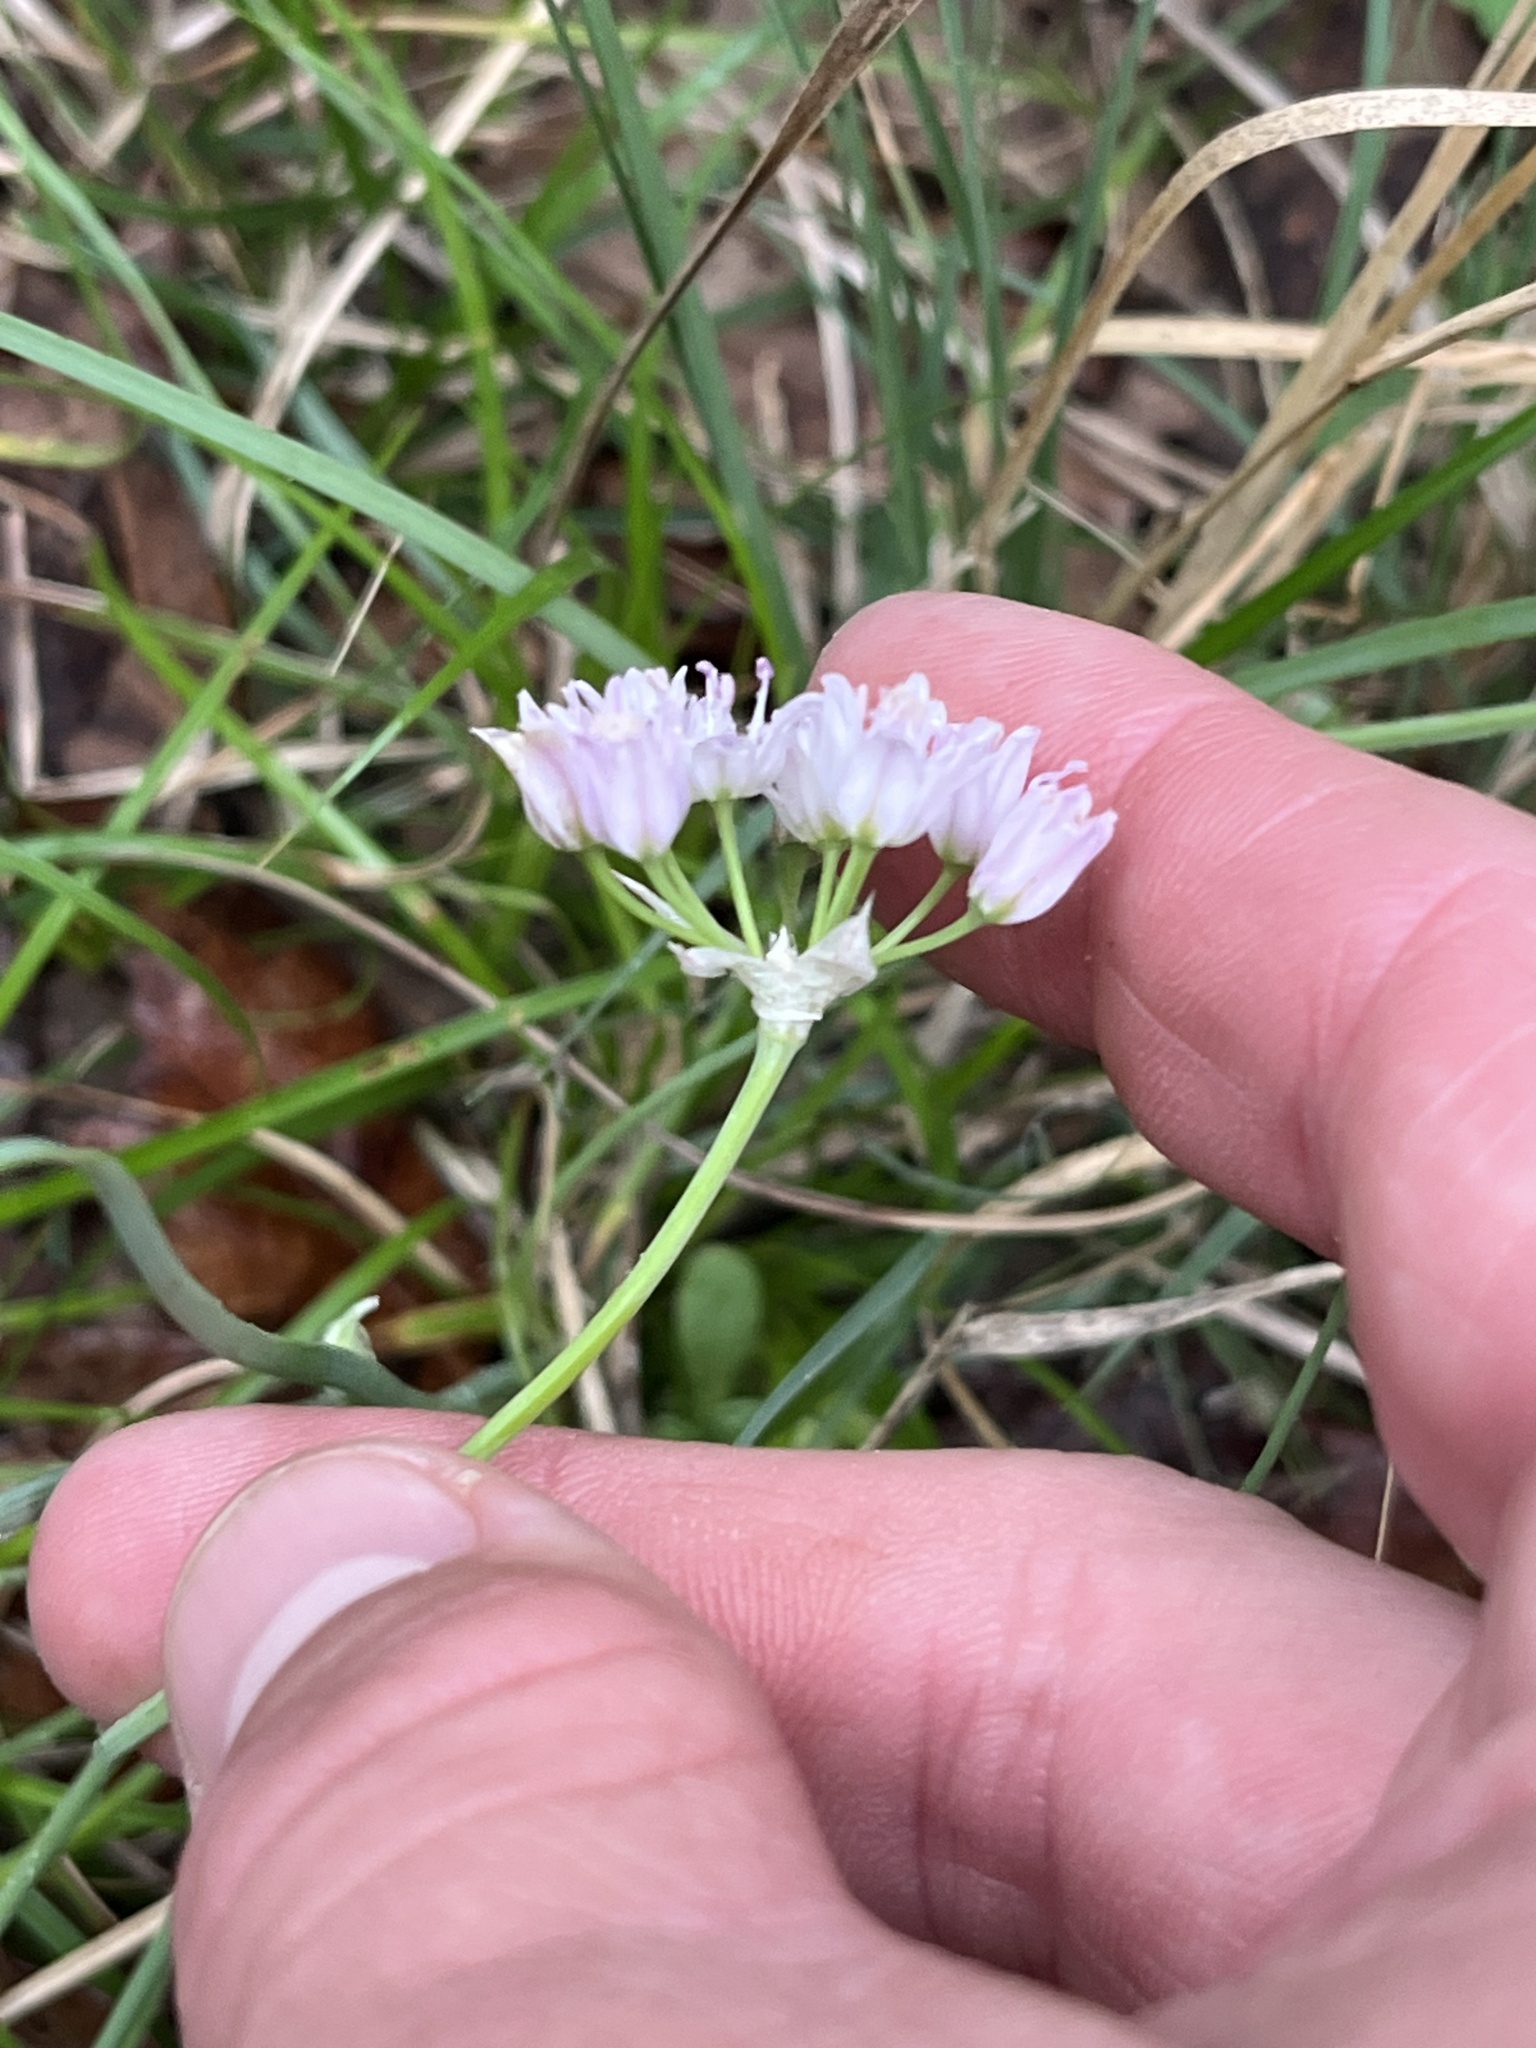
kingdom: Plantae
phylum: Tracheophyta
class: Liliopsida
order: Asparagales
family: Amaryllidaceae
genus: Allium
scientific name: Allium drummondii
